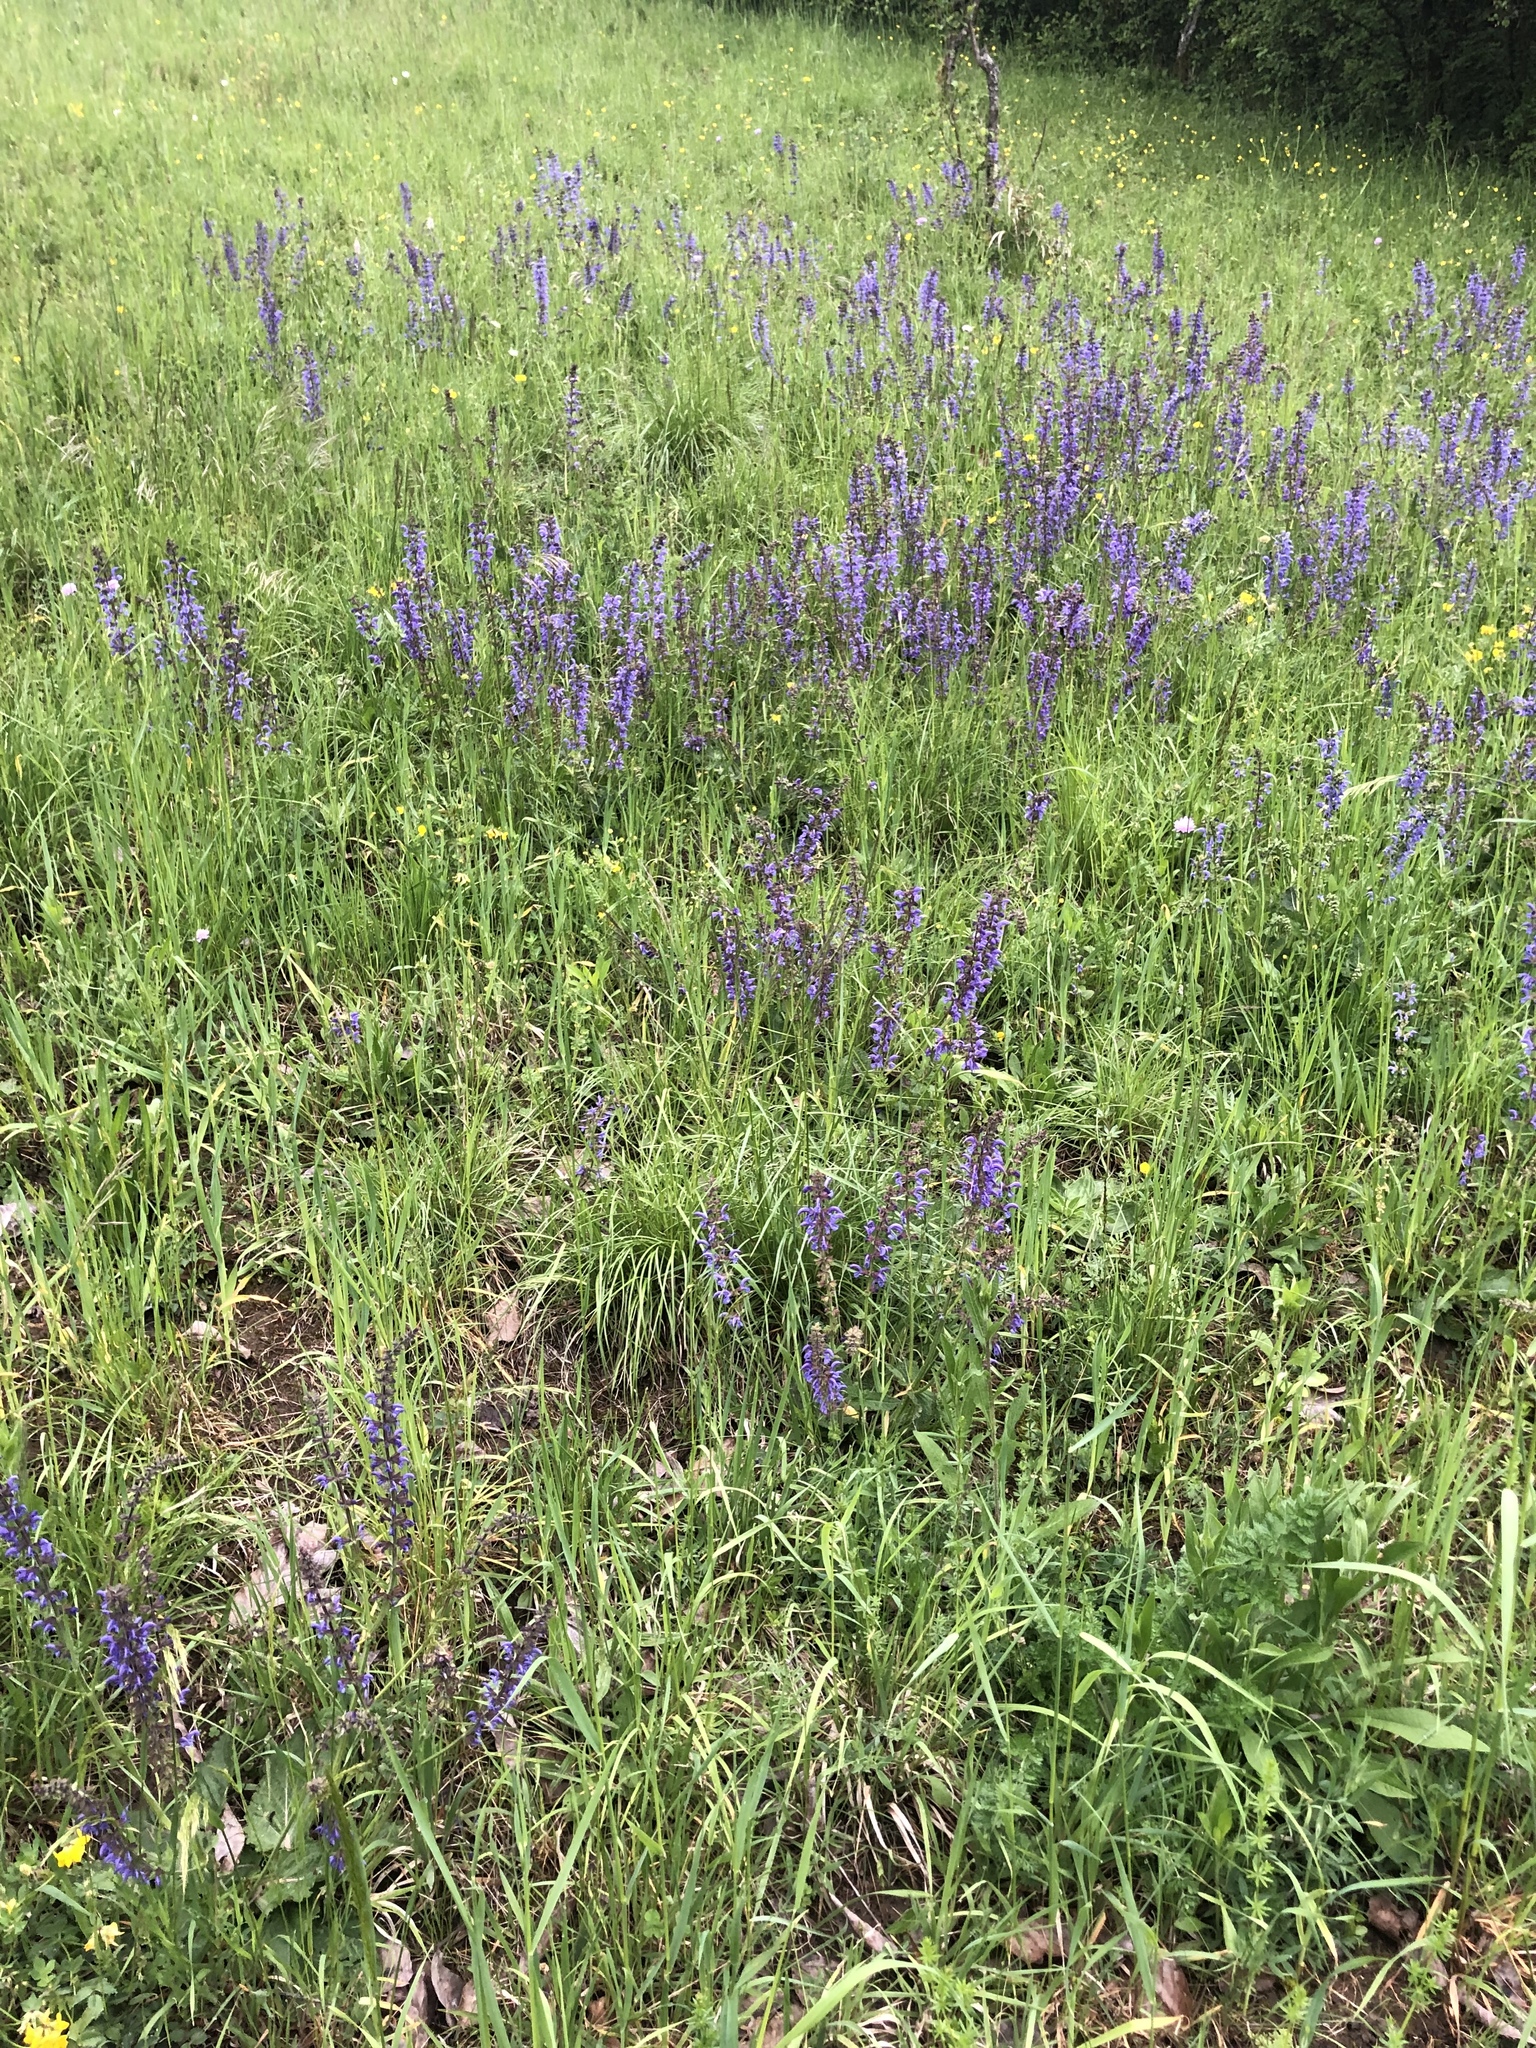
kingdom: Plantae
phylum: Tracheophyta
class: Magnoliopsida
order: Lamiales
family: Lamiaceae
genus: Salvia
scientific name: Salvia pratensis
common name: Meadow sage
